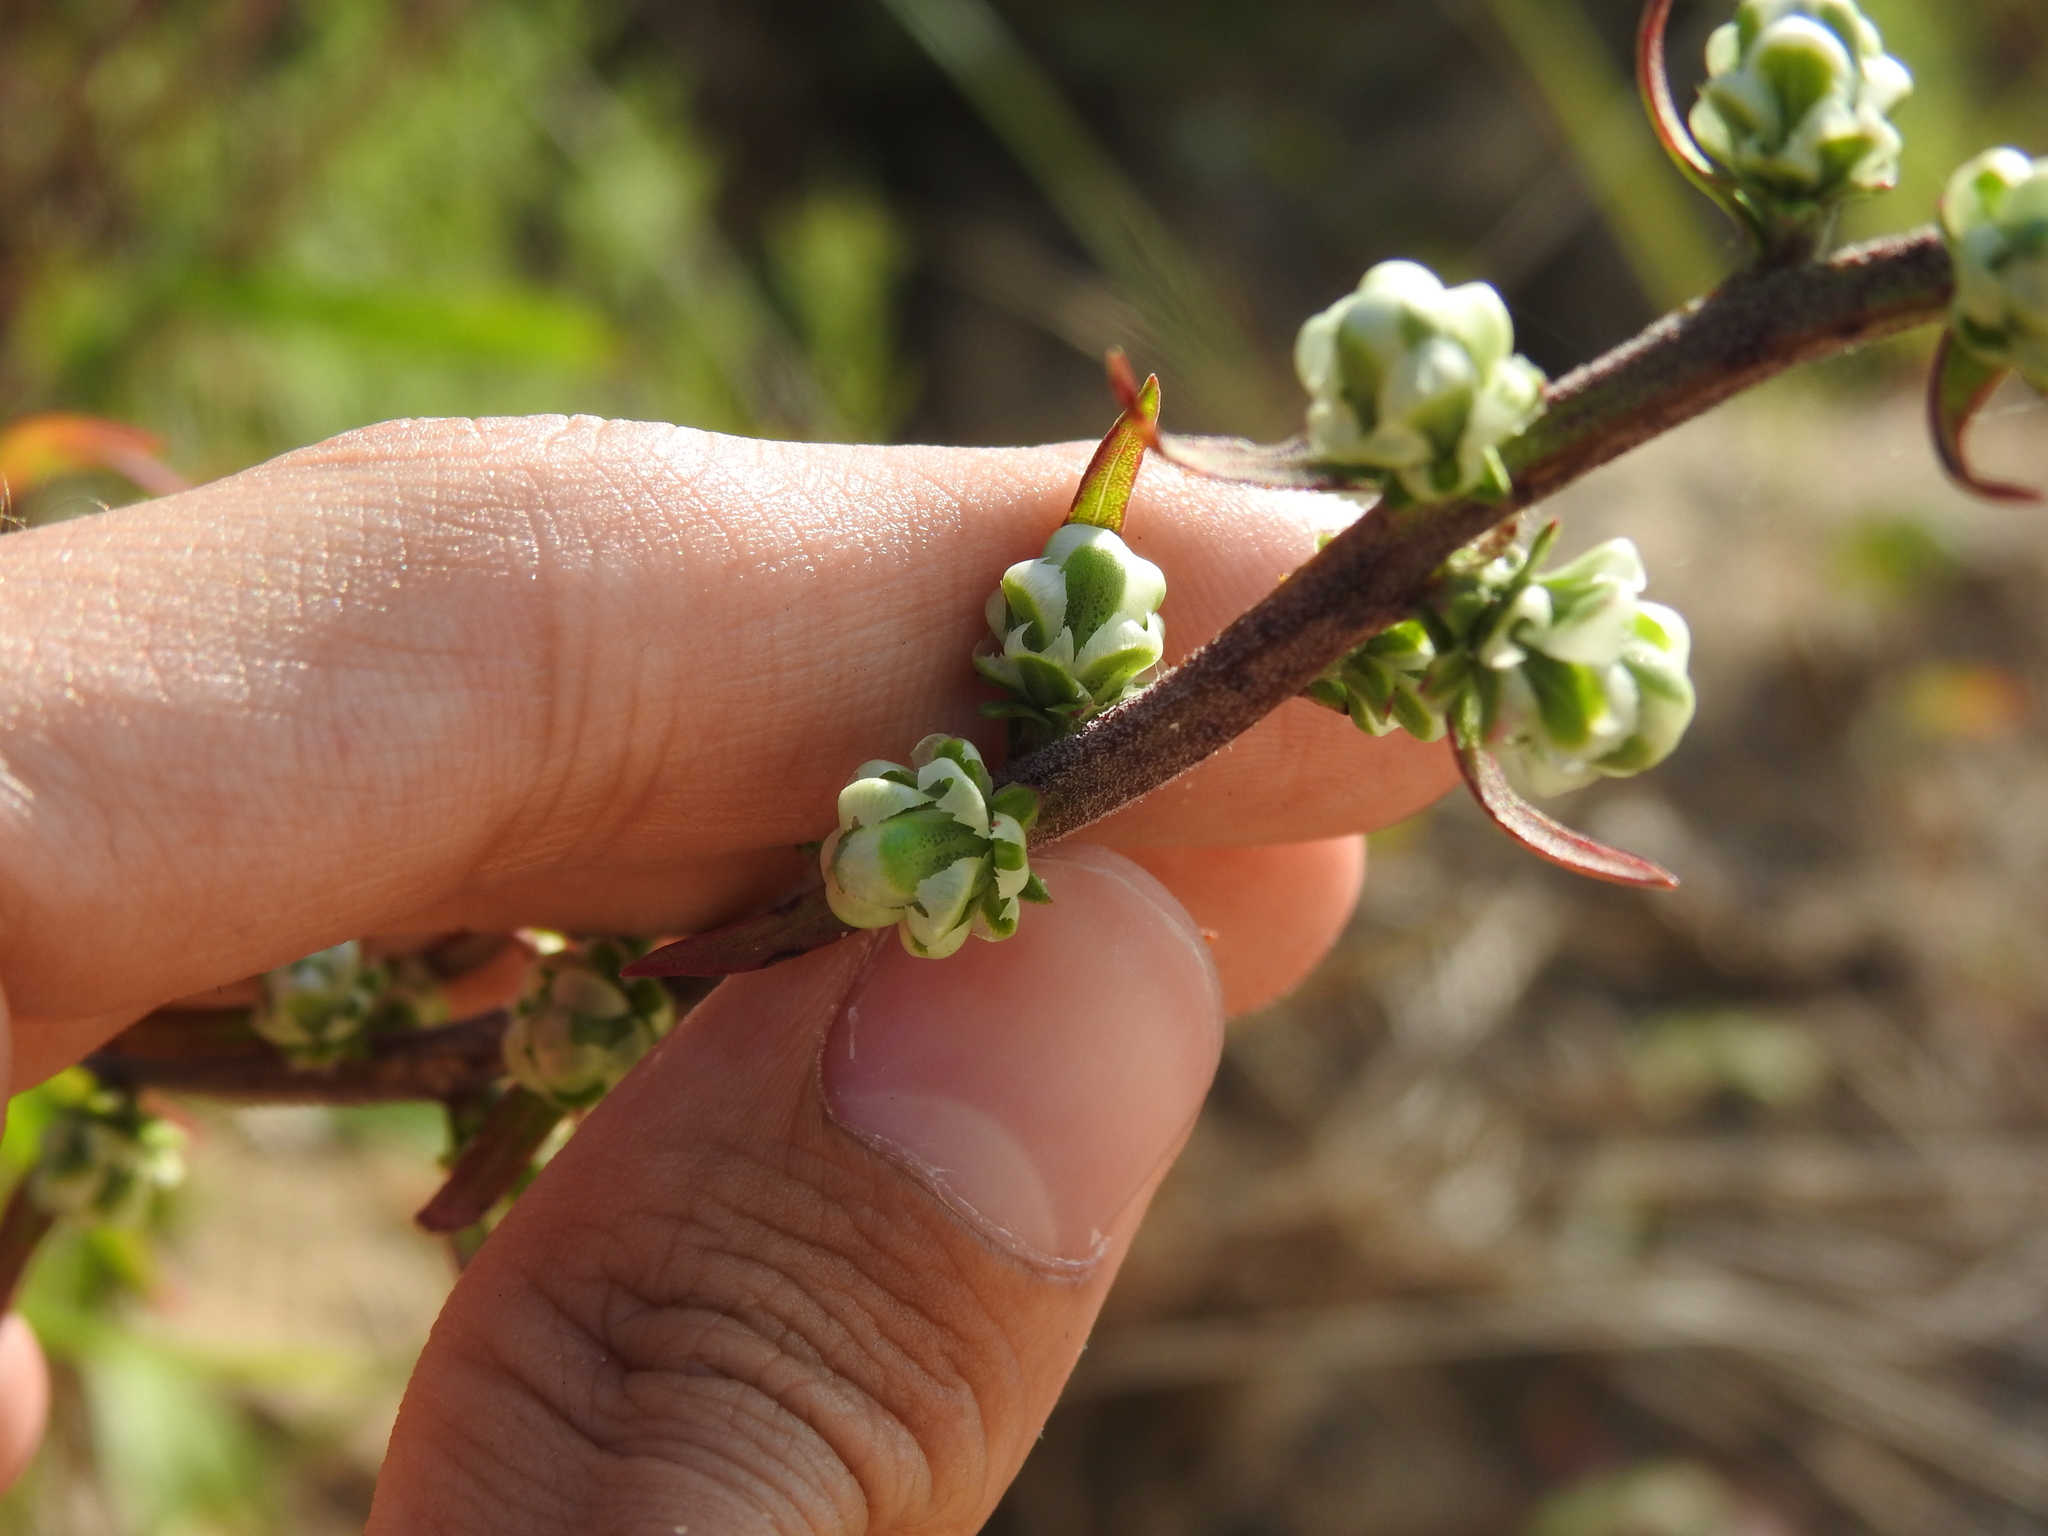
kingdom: Plantae
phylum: Tracheophyta
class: Magnoliopsida
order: Asterales
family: Asteraceae
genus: Liatris
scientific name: Liatris aspera
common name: Lacerate blazing-star
